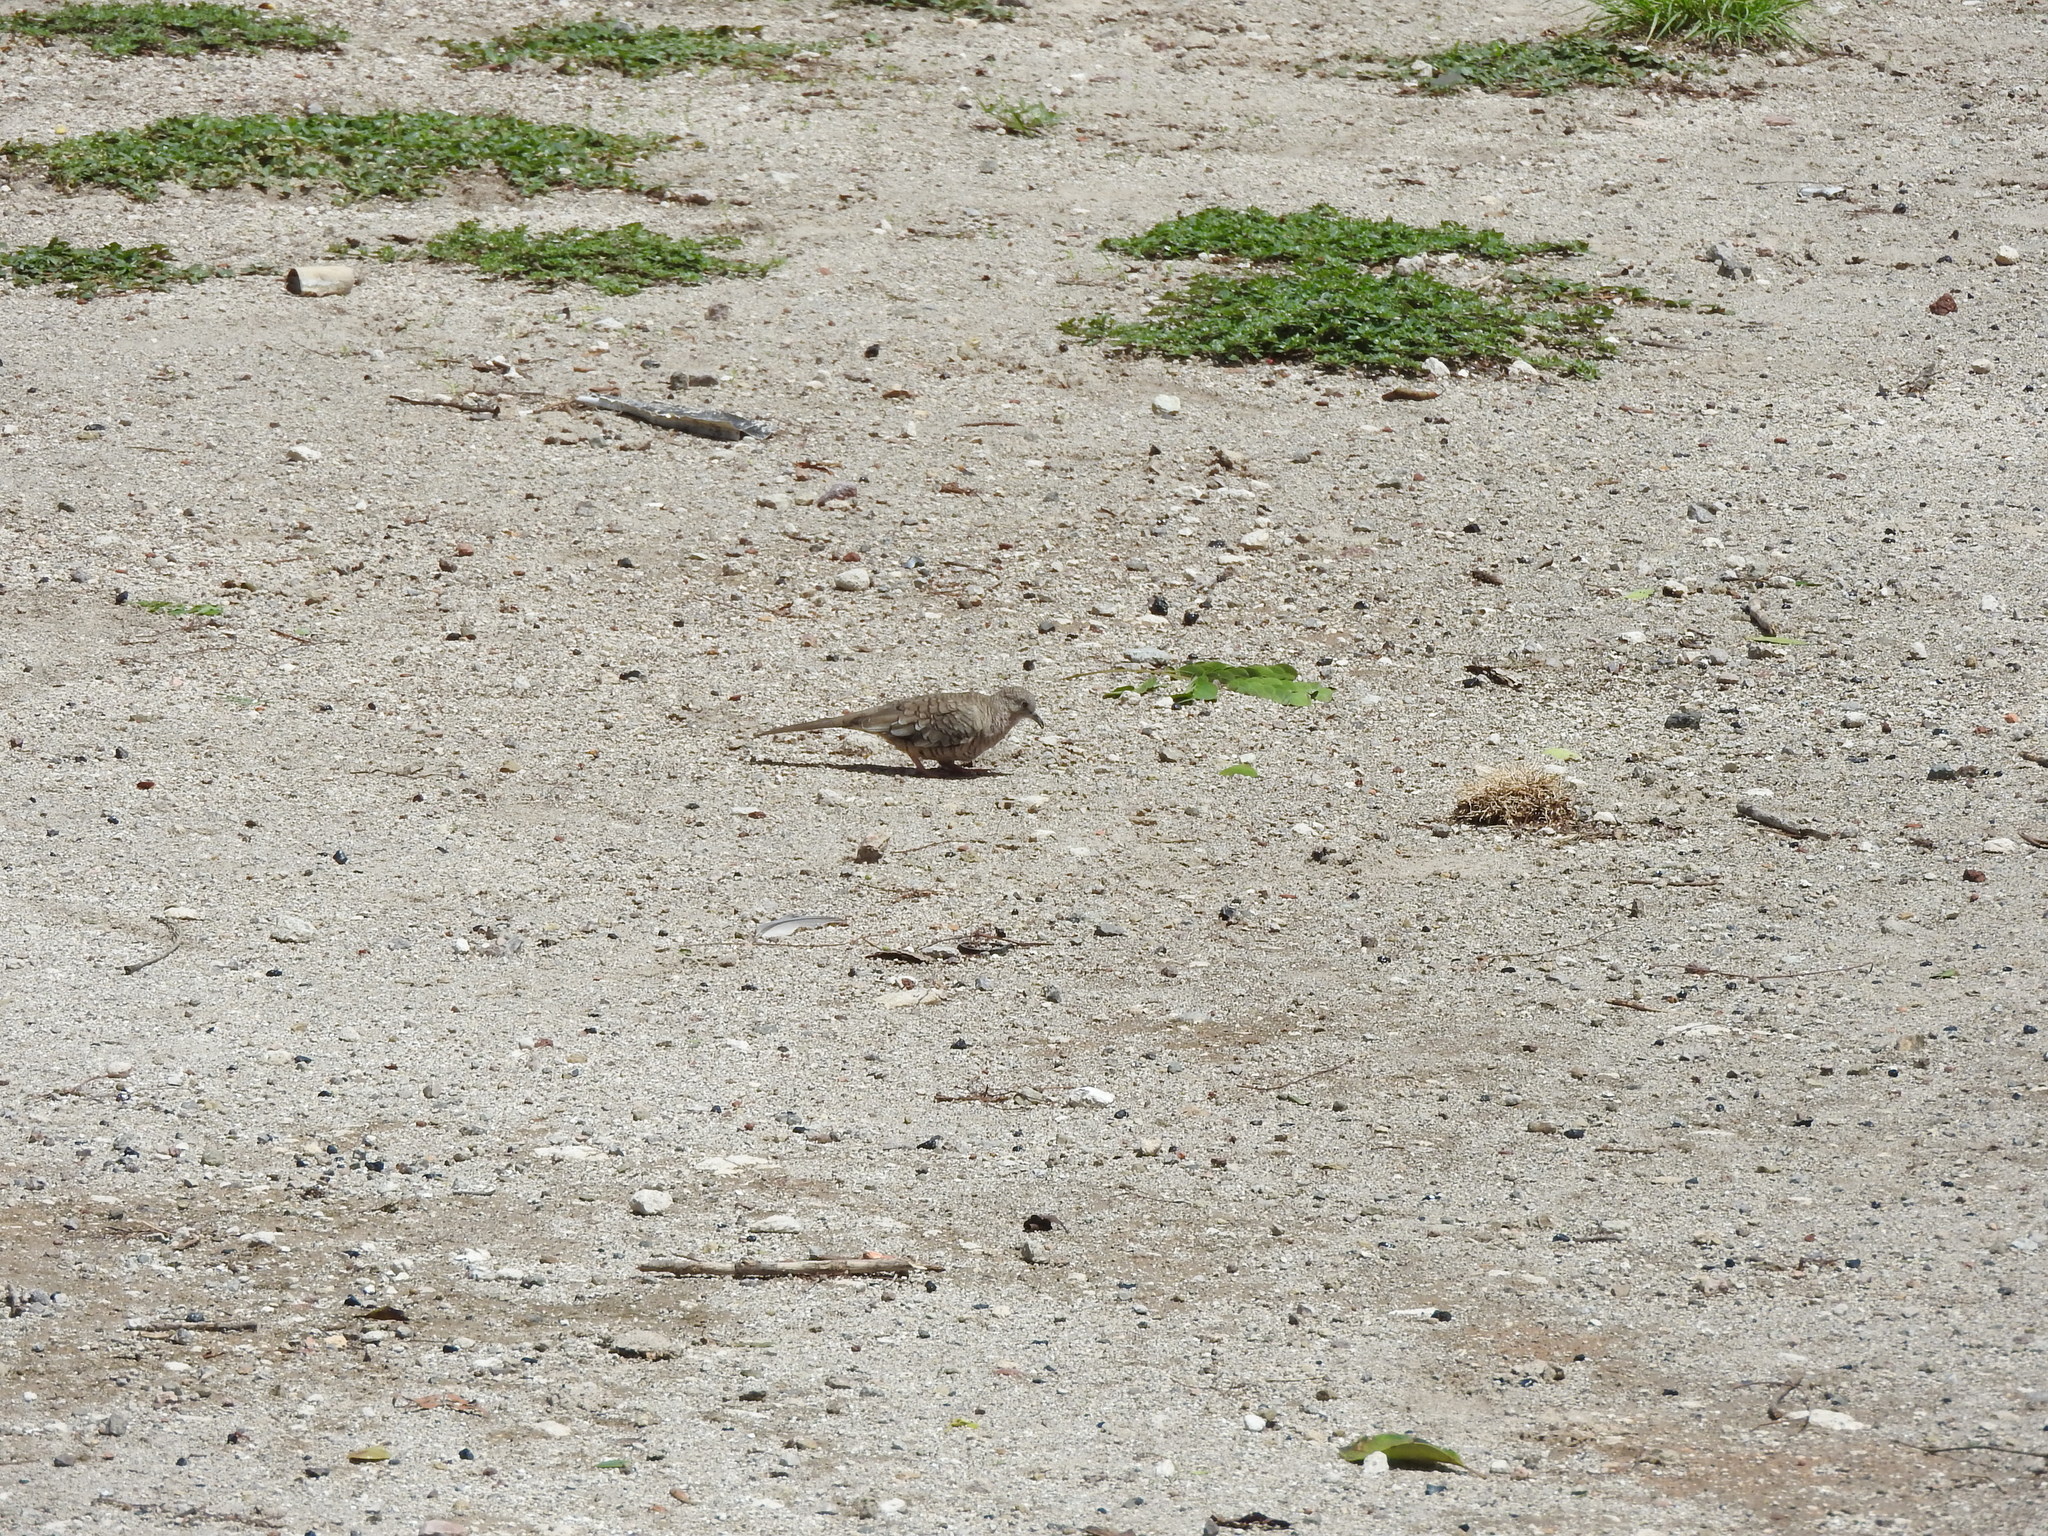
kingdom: Animalia
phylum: Chordata
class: Aves
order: Columbiformes
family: Columbidae
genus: Columbina
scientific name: Columbina inca
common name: Inca dove
